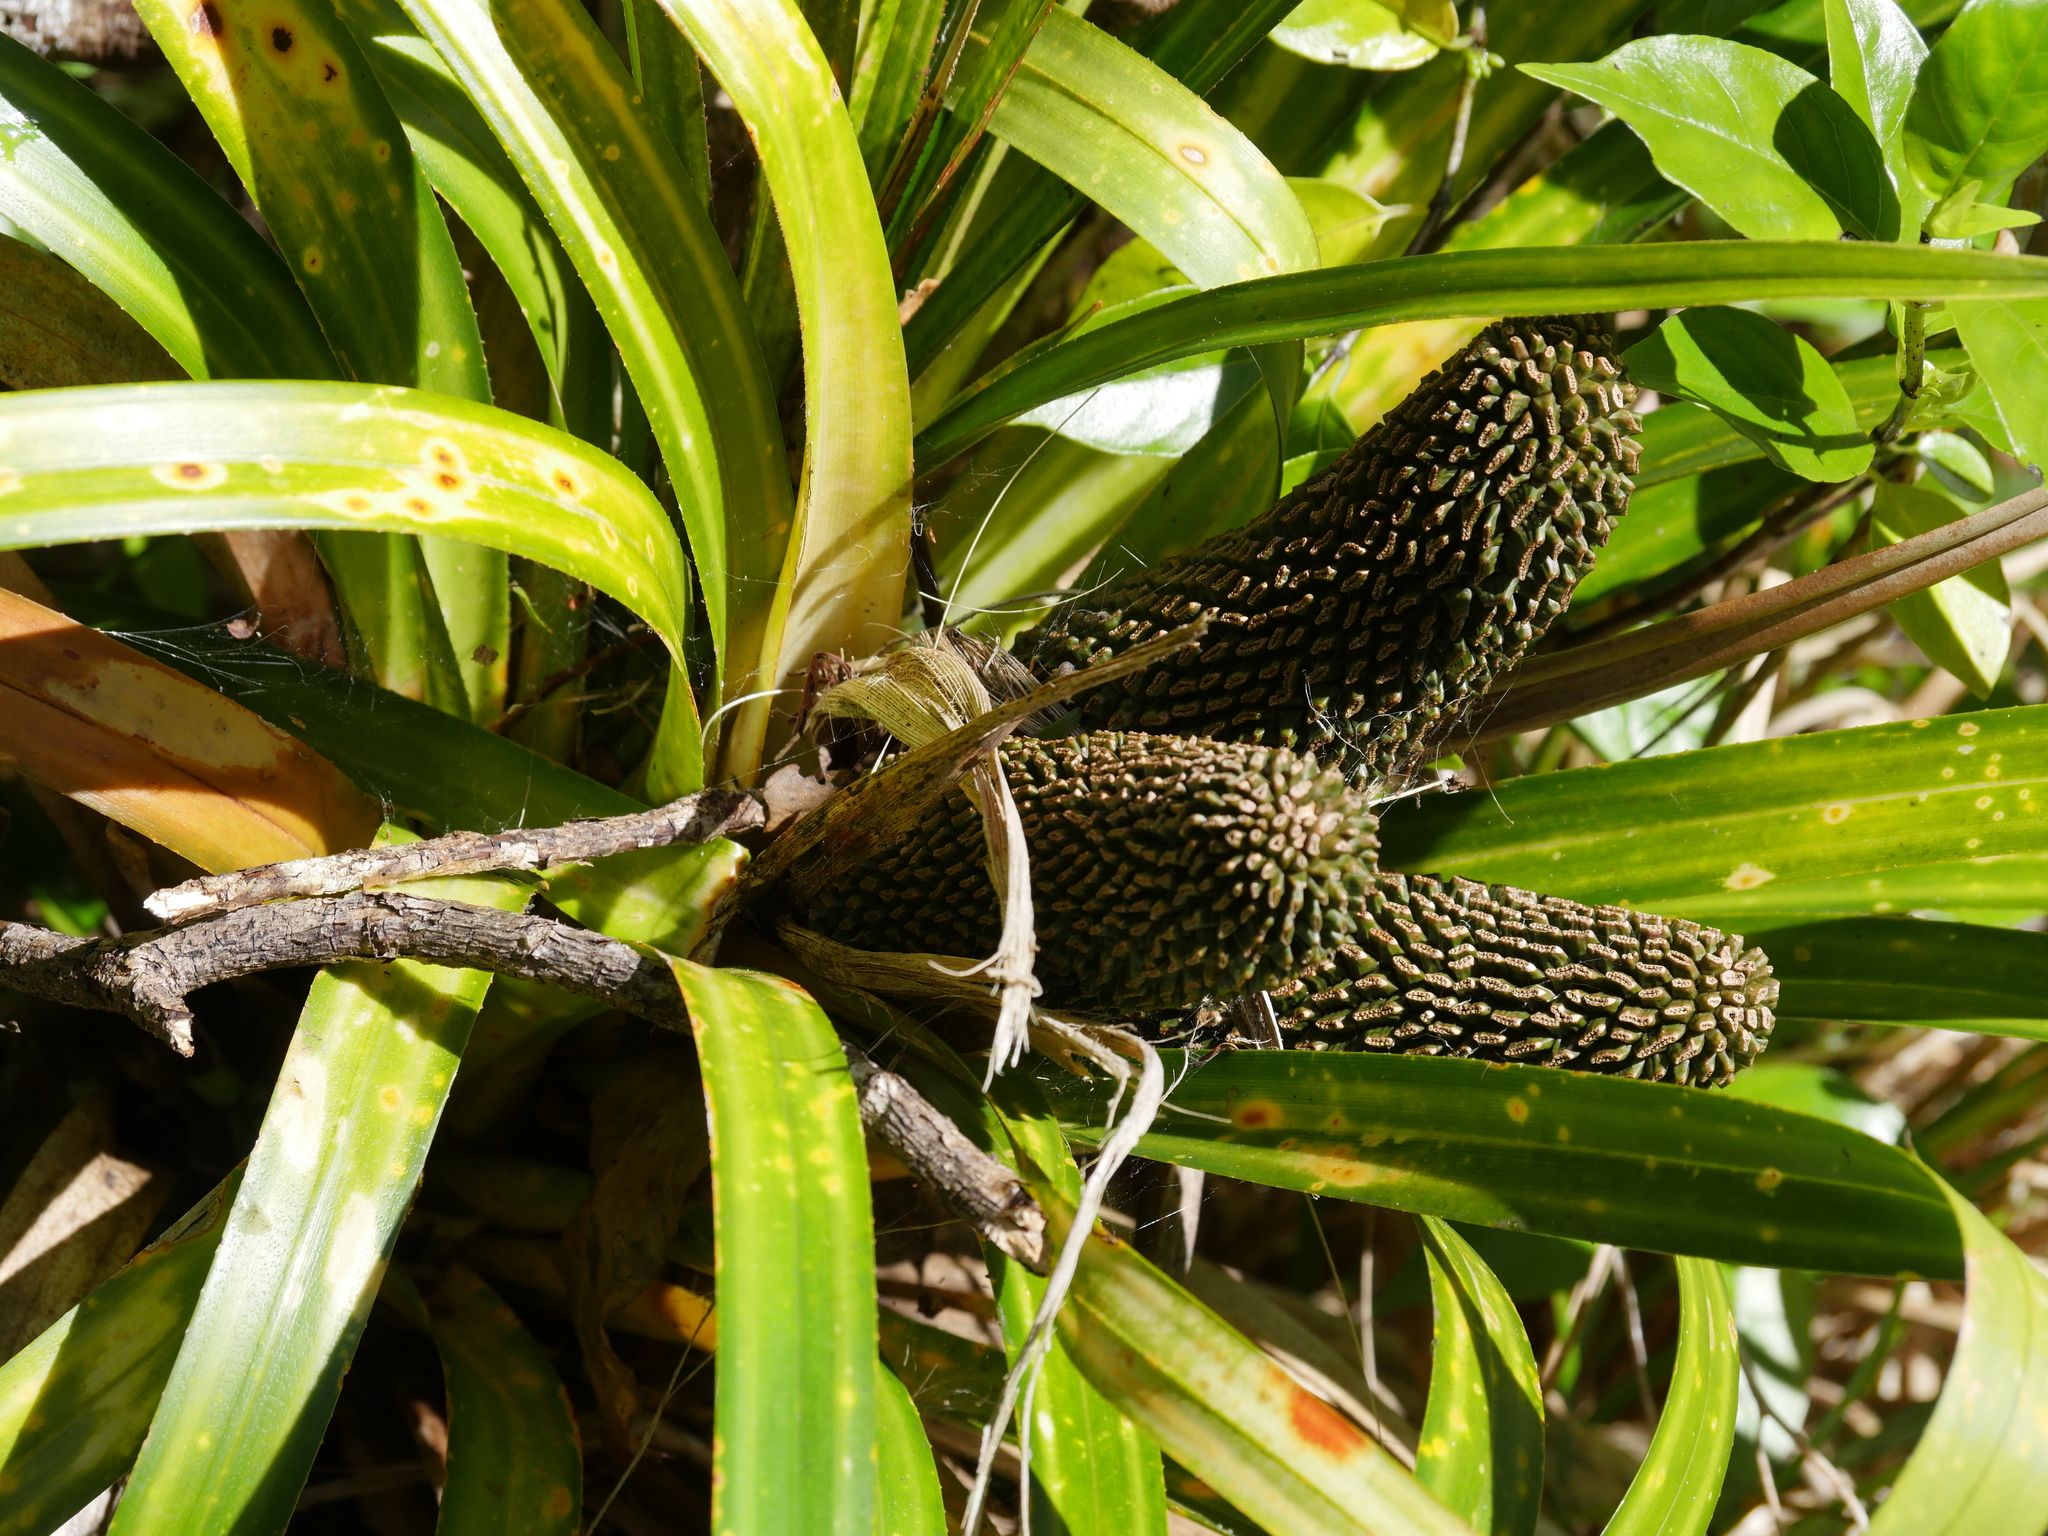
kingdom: Plantae
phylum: Tracheophyta
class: Liliopsida
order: Pandanales
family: Pandanaceae
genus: Freycinetia
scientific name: Freycinetia banksii
